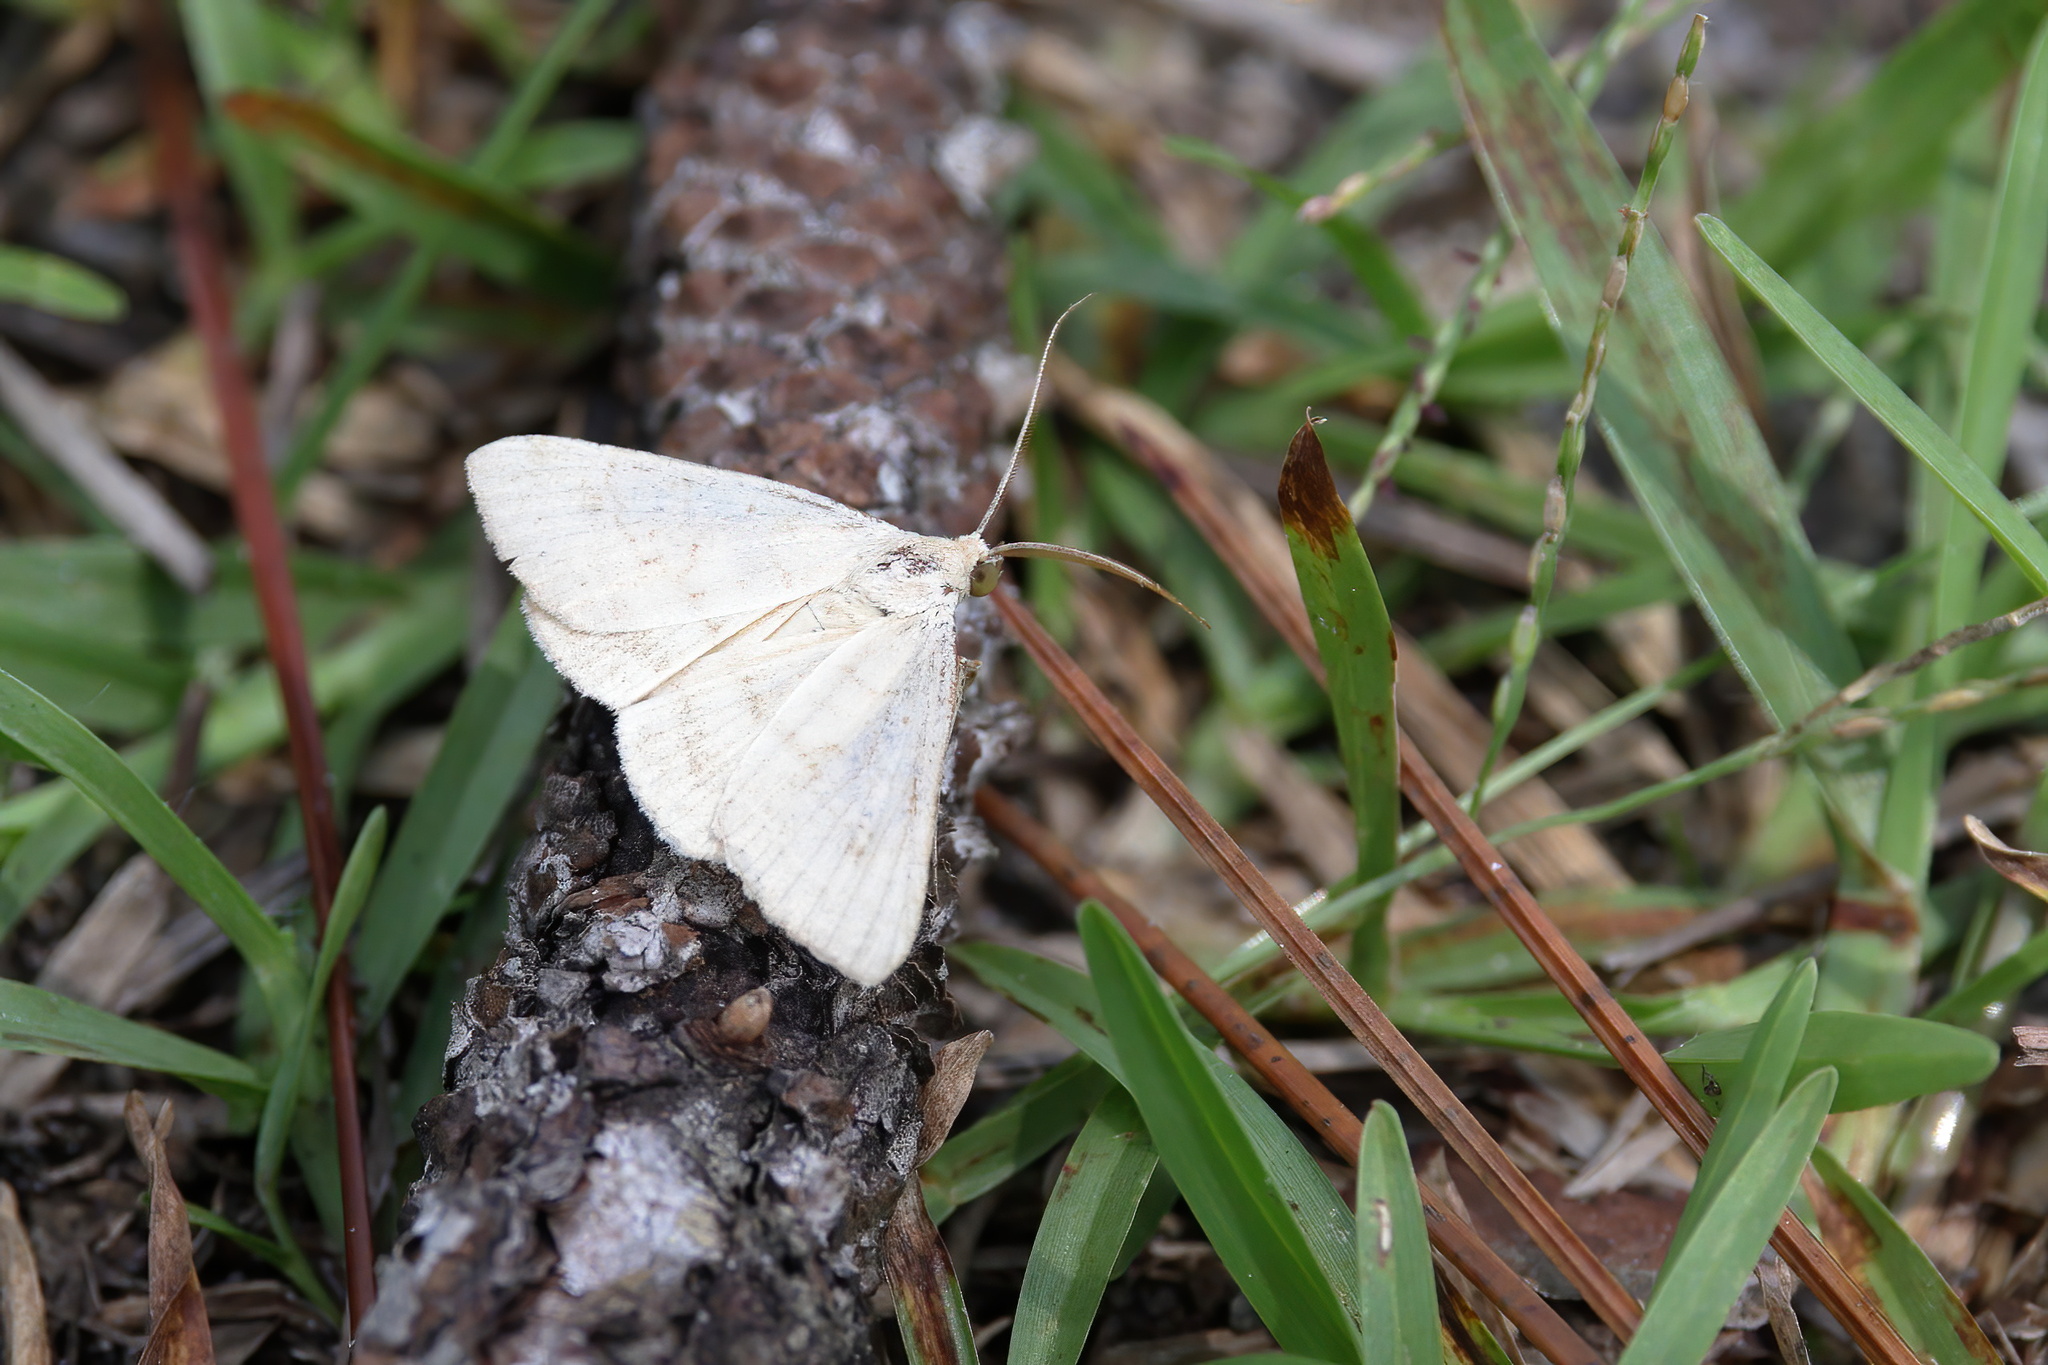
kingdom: Animalia
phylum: Arthropoda
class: Insecta
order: Lepidoptera
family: Crambidae
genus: Udea
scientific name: Udea rubigalis
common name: Celery leaftier moth
